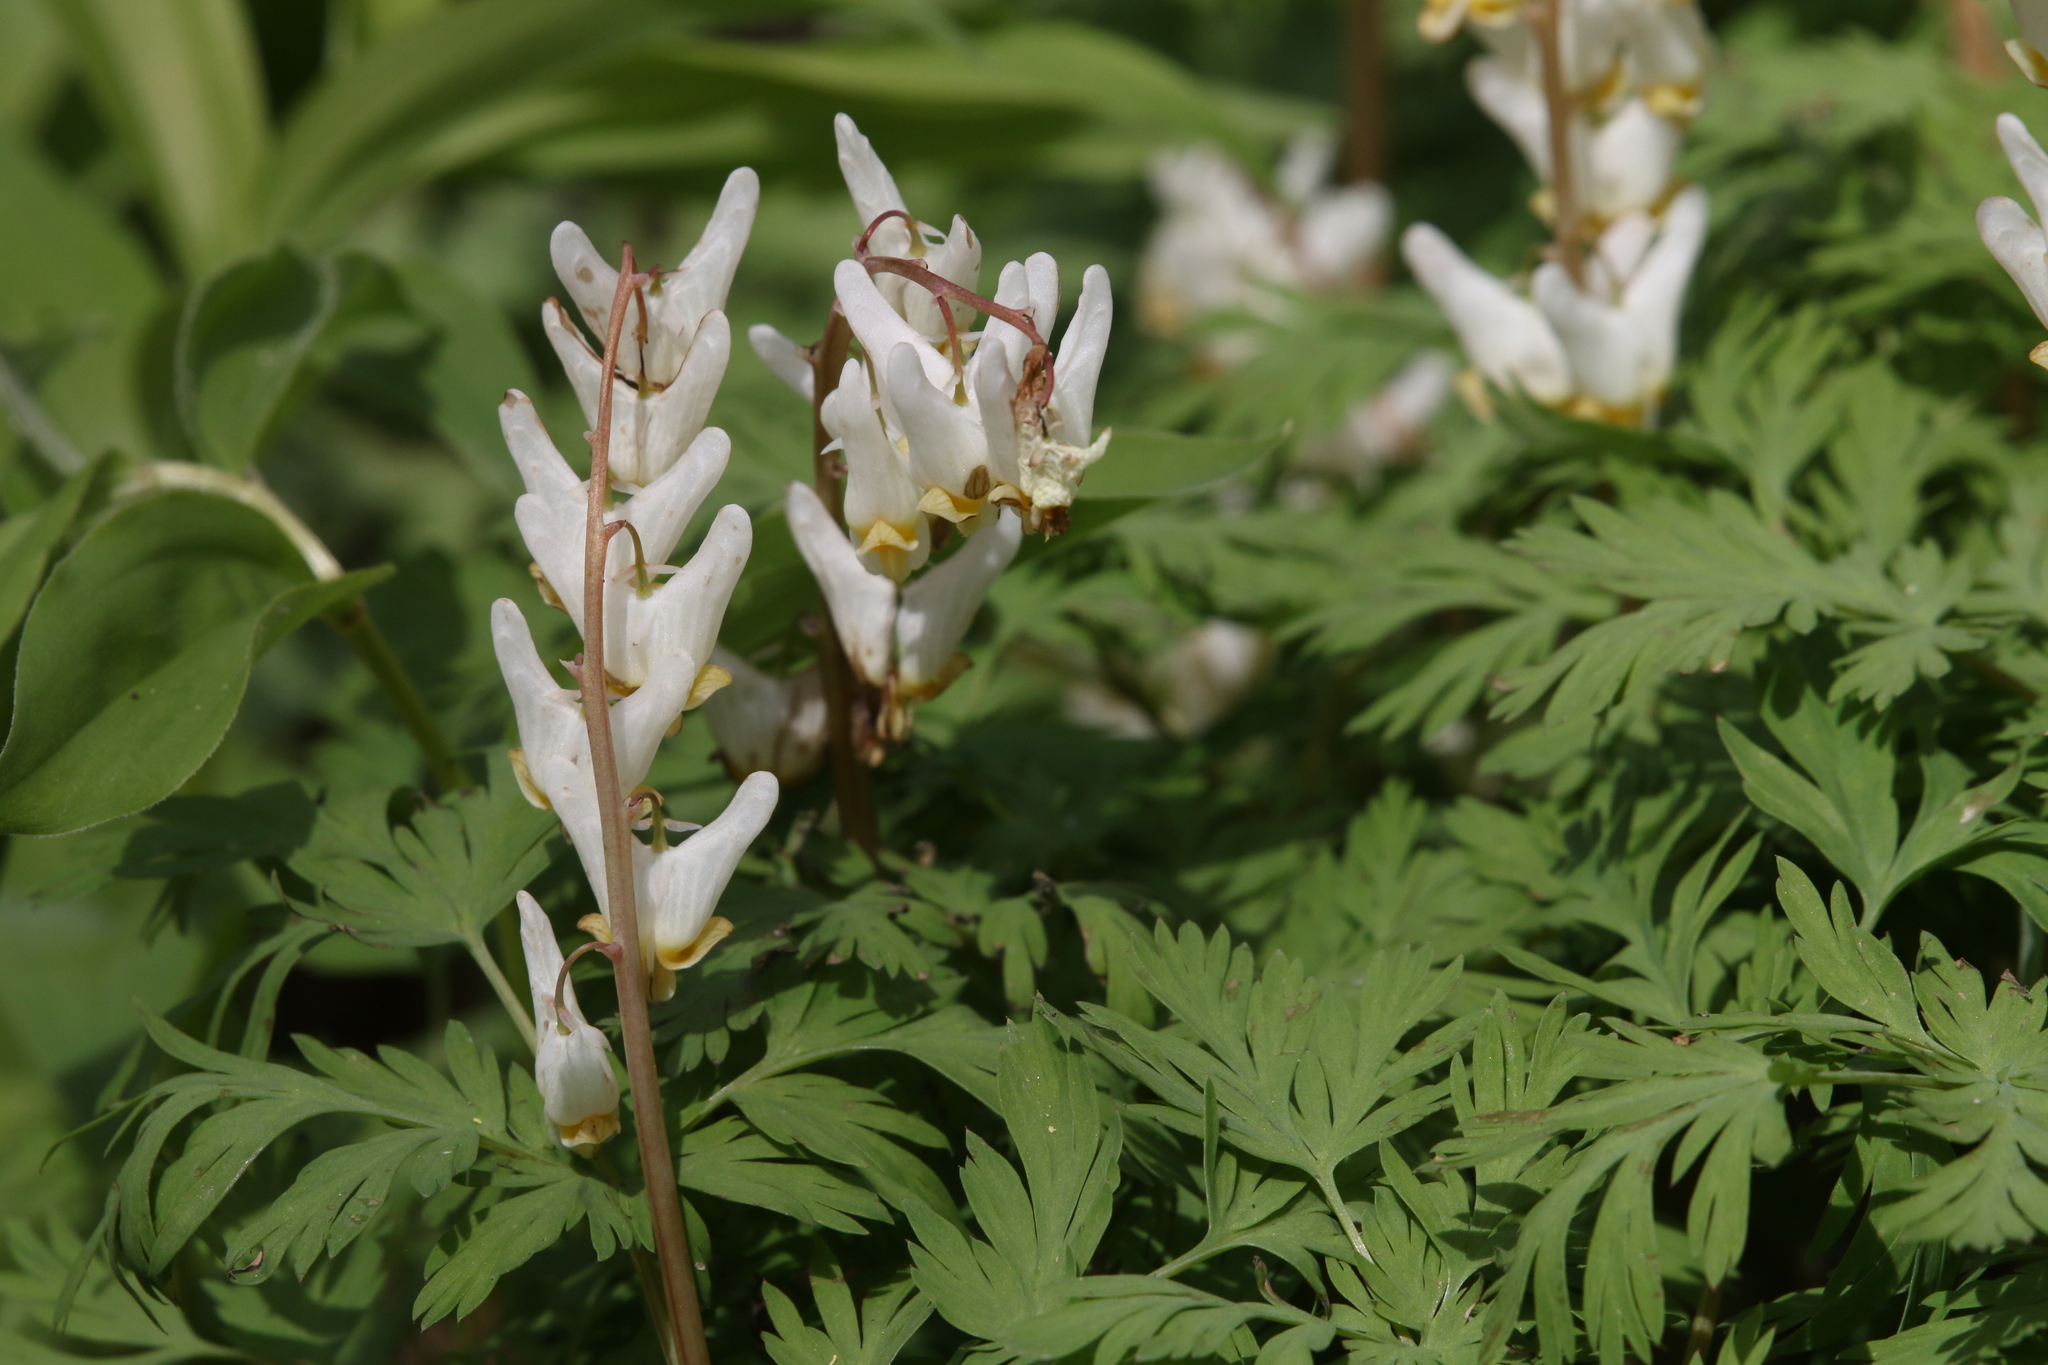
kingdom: Plantae
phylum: Tracheophyta
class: Magnoliopsida
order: Ranunculales
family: Papaveraceae
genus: Dicentra
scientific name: Dicentra cucullaria
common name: Dutchman's breeches
